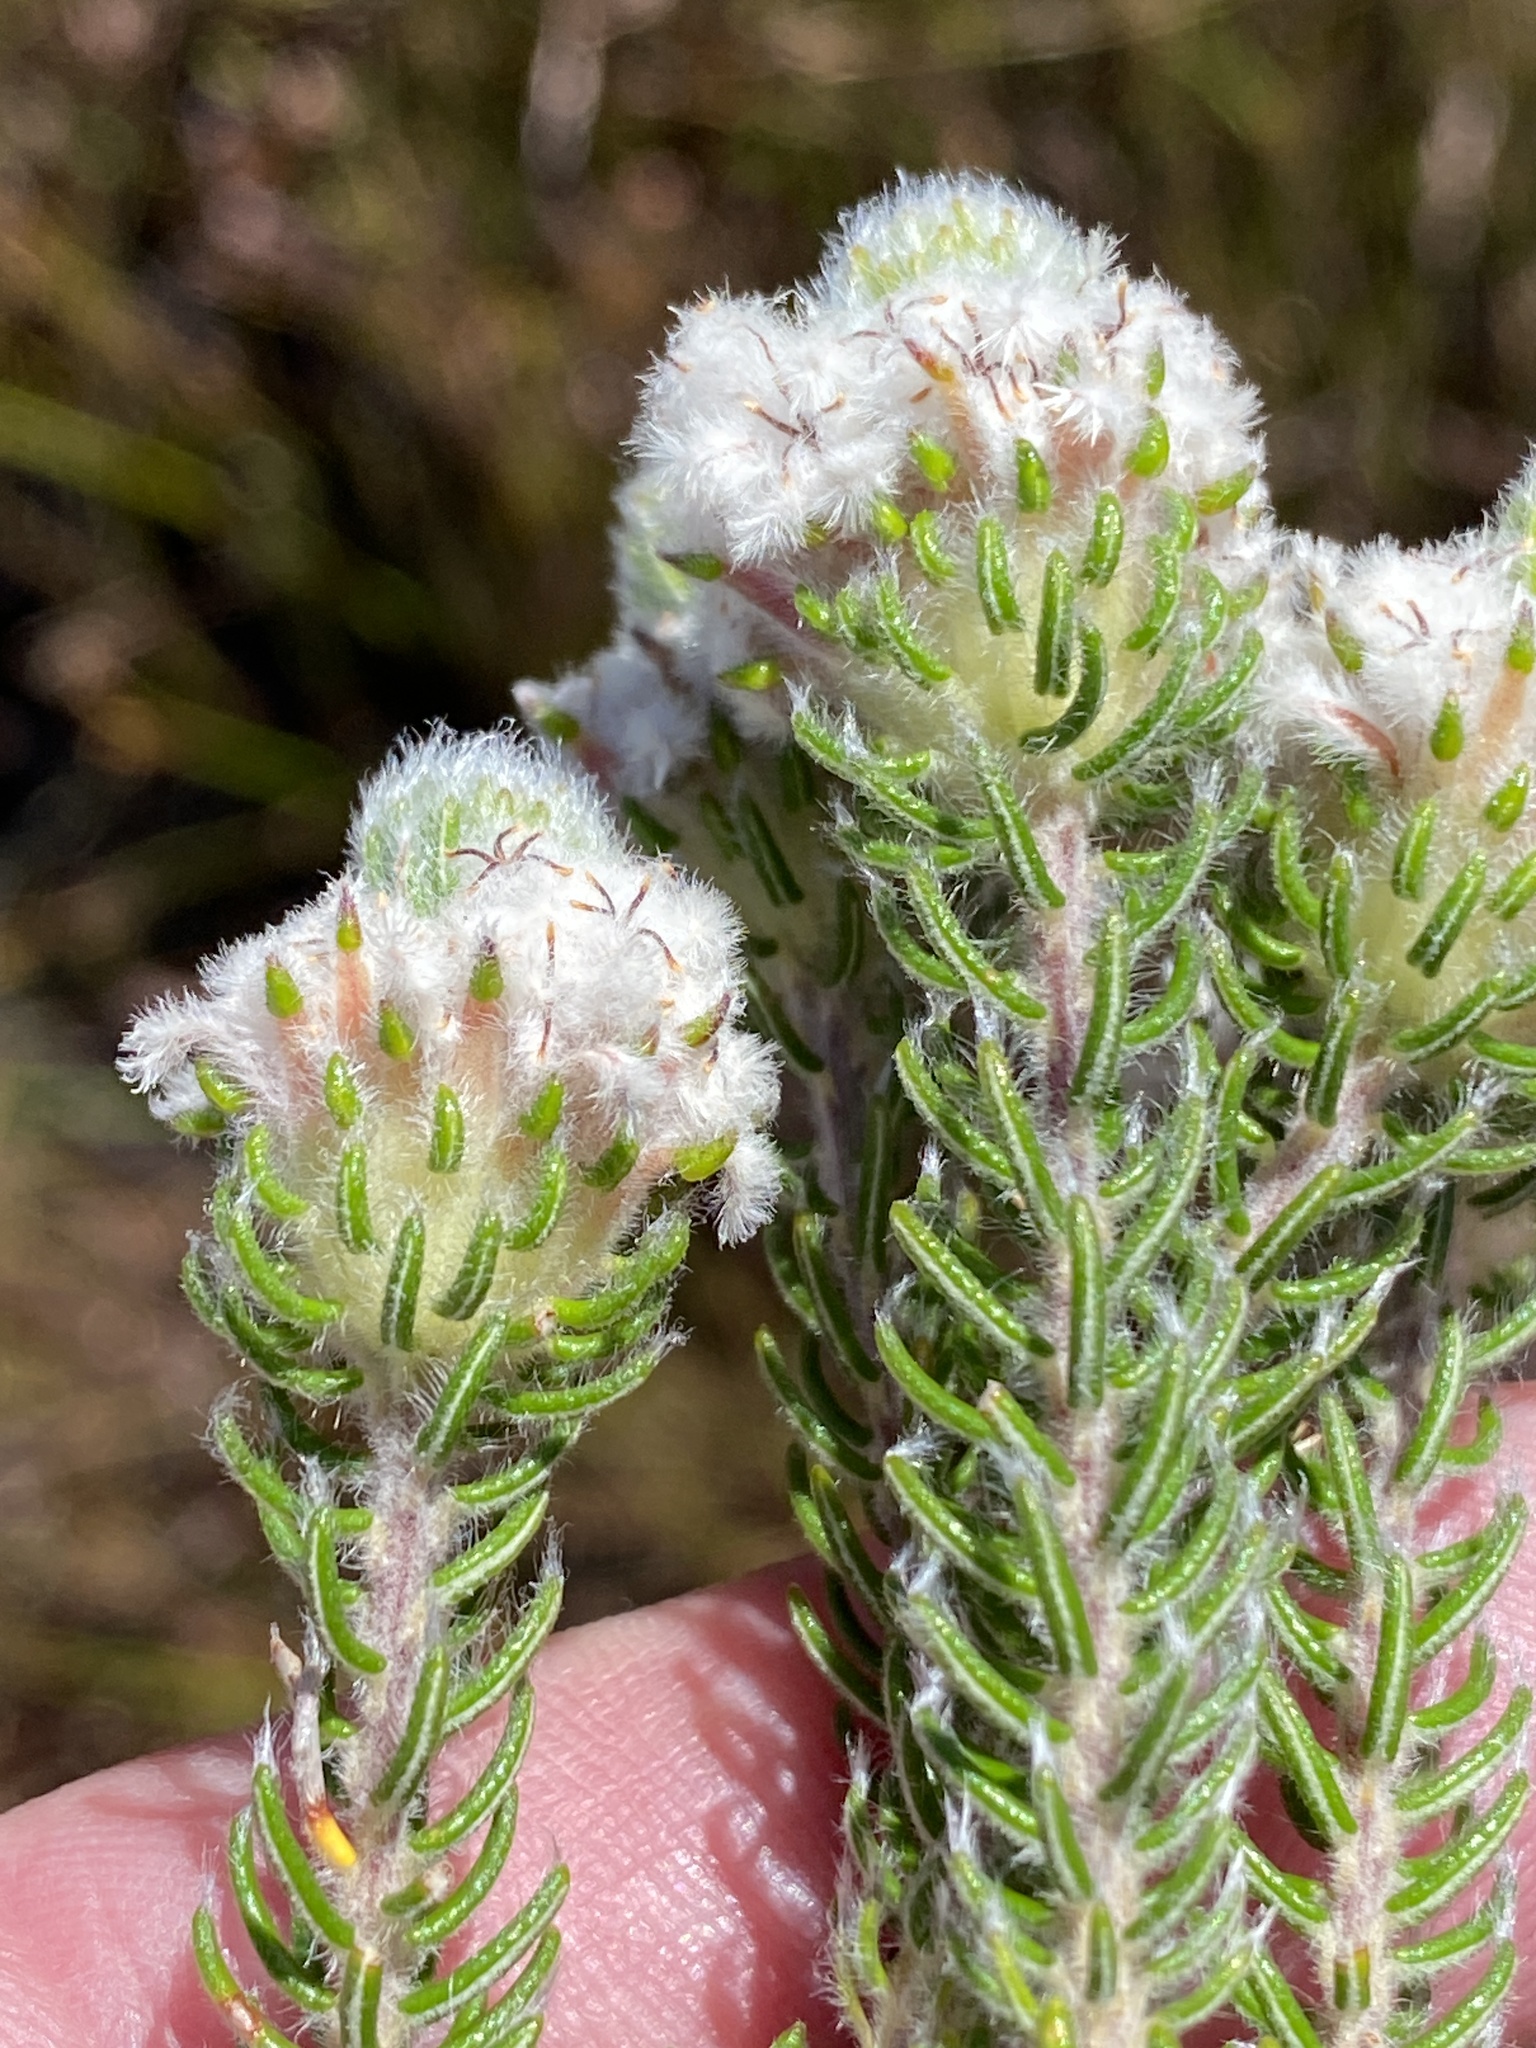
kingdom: Plantae
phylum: Tracheophyta
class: Magnoliopsida
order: Rosales
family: Rhamnaceae
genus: Phylica
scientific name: Phylica constricta
